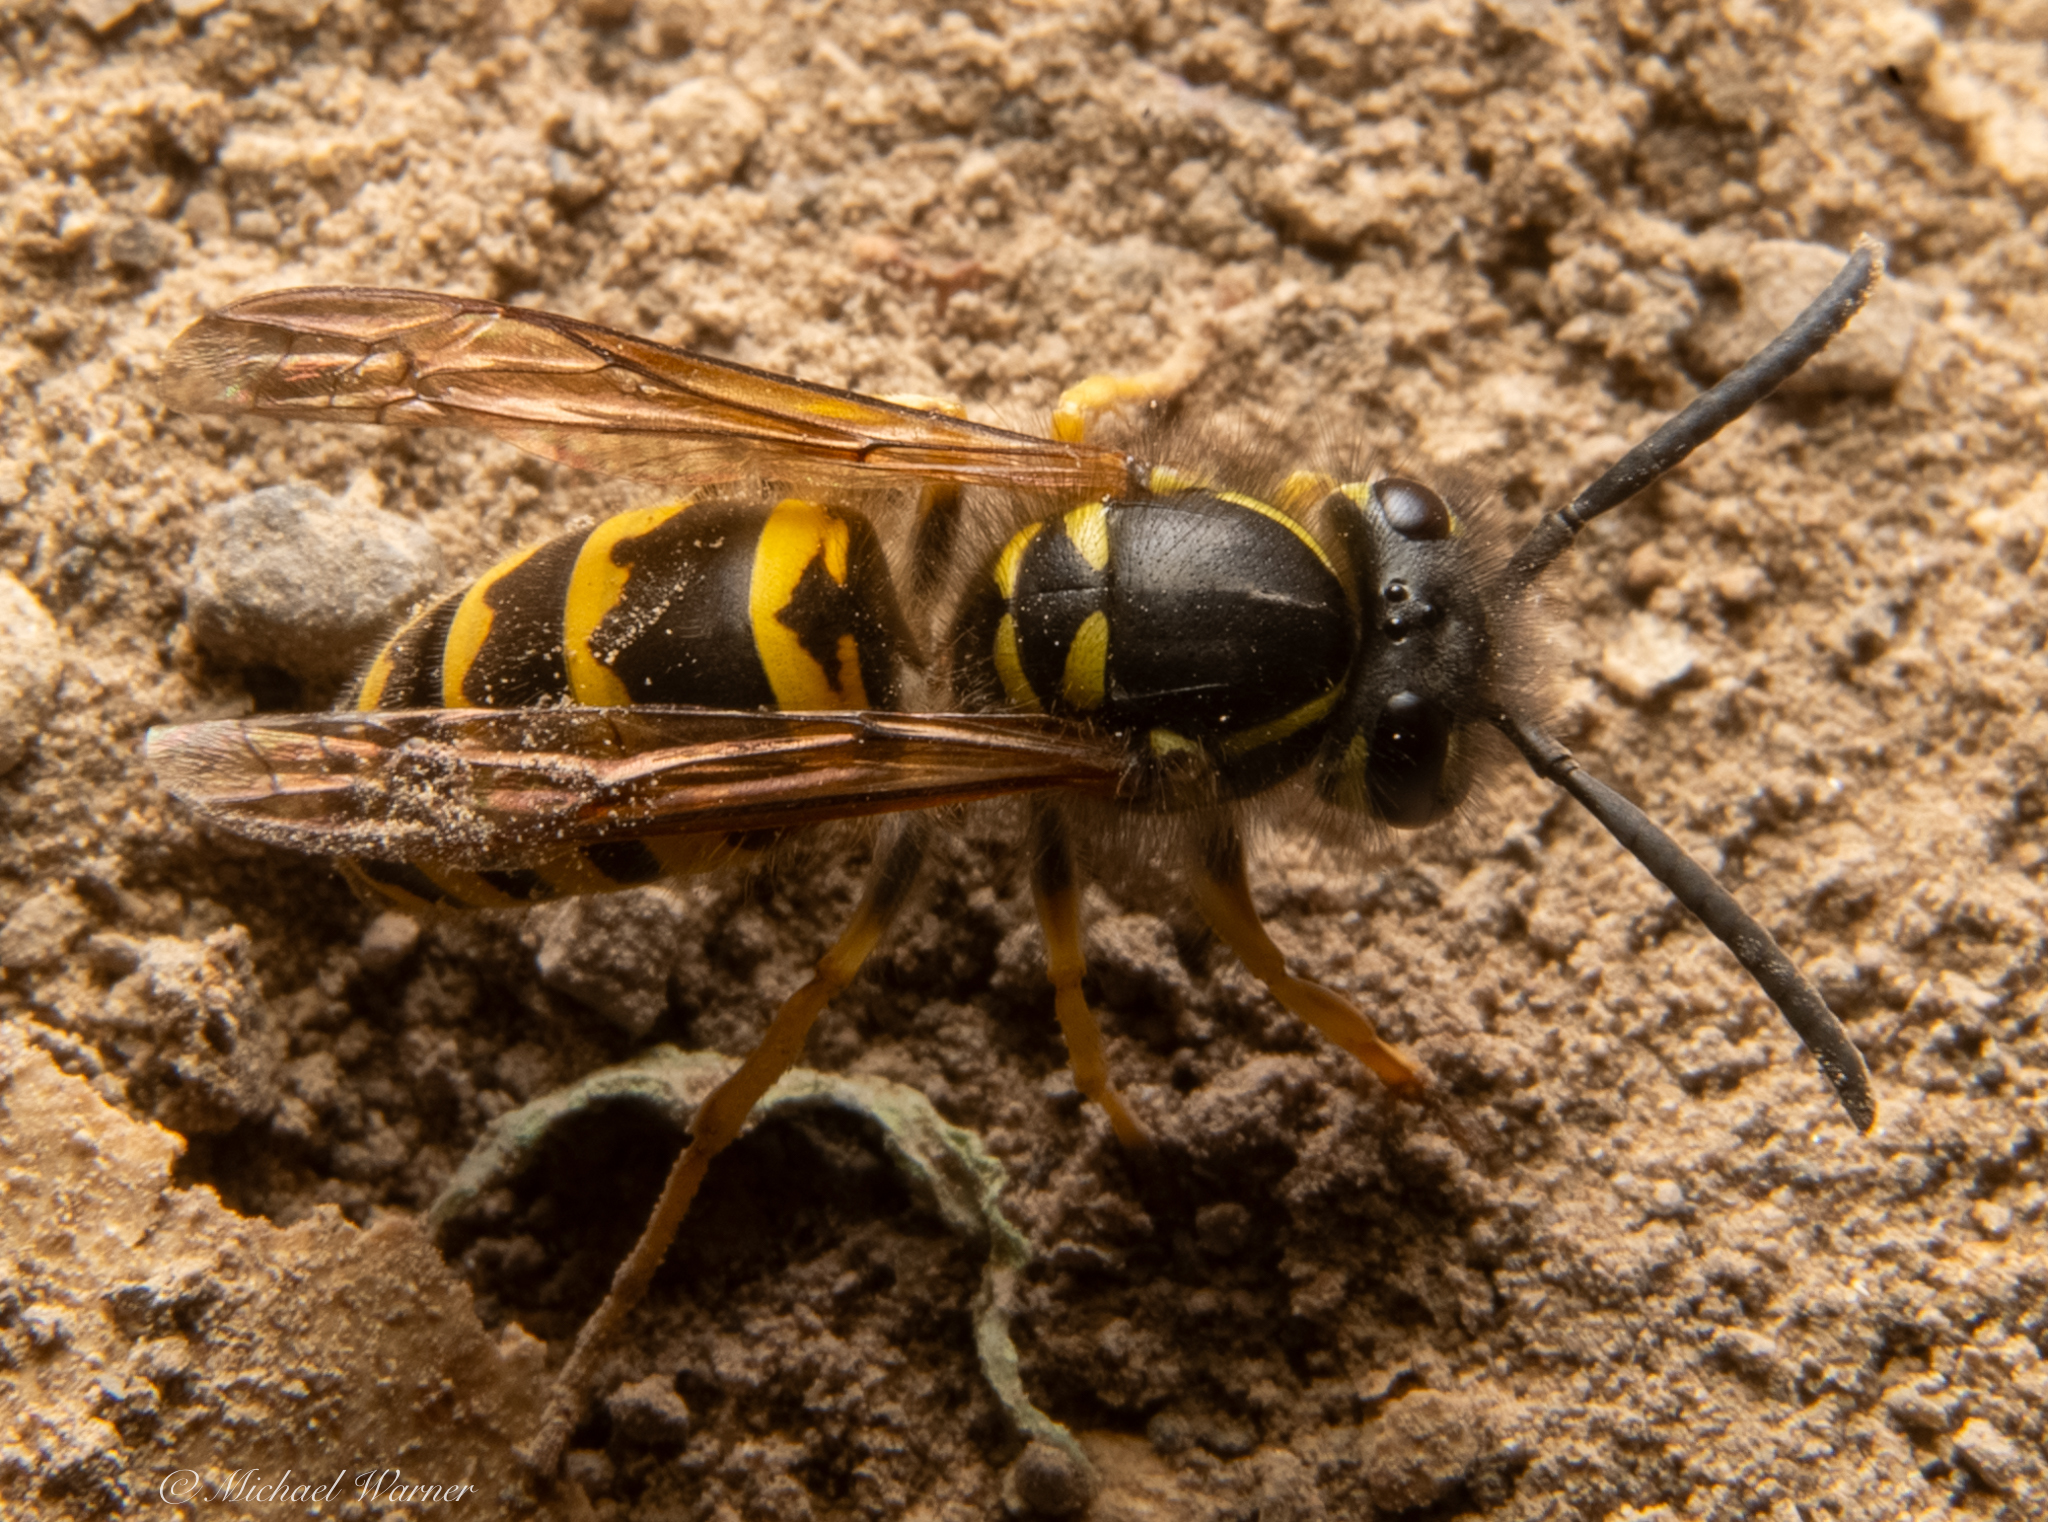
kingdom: Animalia
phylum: Arthropoda
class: Insecta
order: Hymenoptera
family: Vespidae
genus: Vespula
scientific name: Vespula alascensis
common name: Alaska yellowjacket
